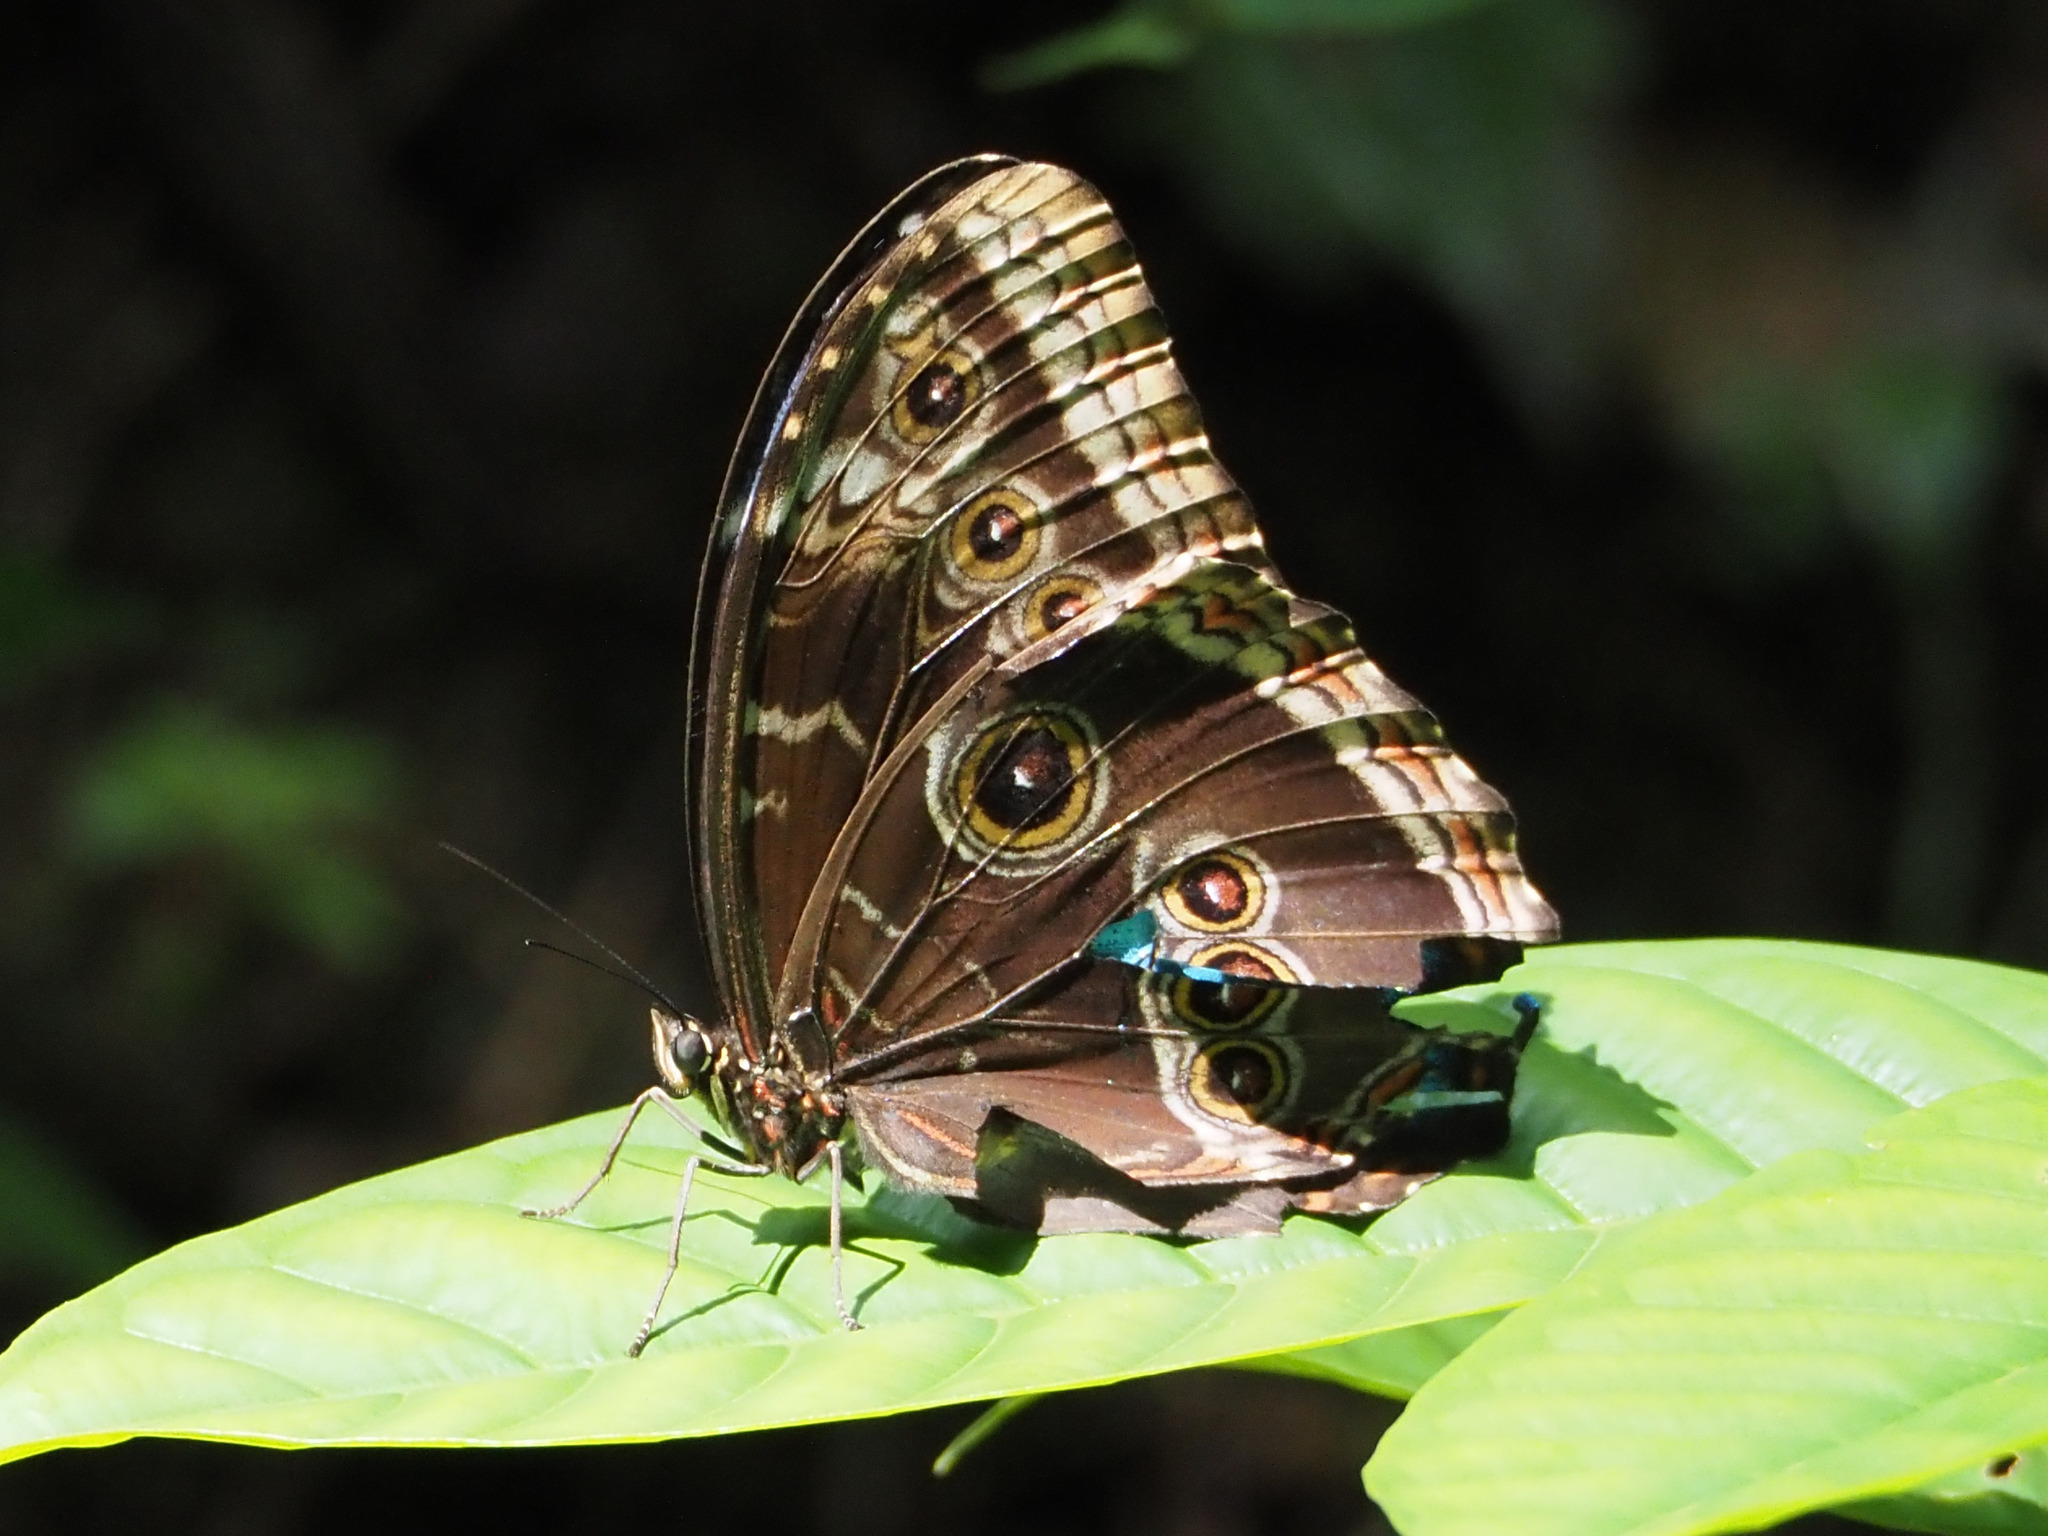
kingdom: Animalia
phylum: Arthropoda
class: Insecta
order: Lepidoptera
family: Nymphalidae
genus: Morpho
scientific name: Morpho helenor
